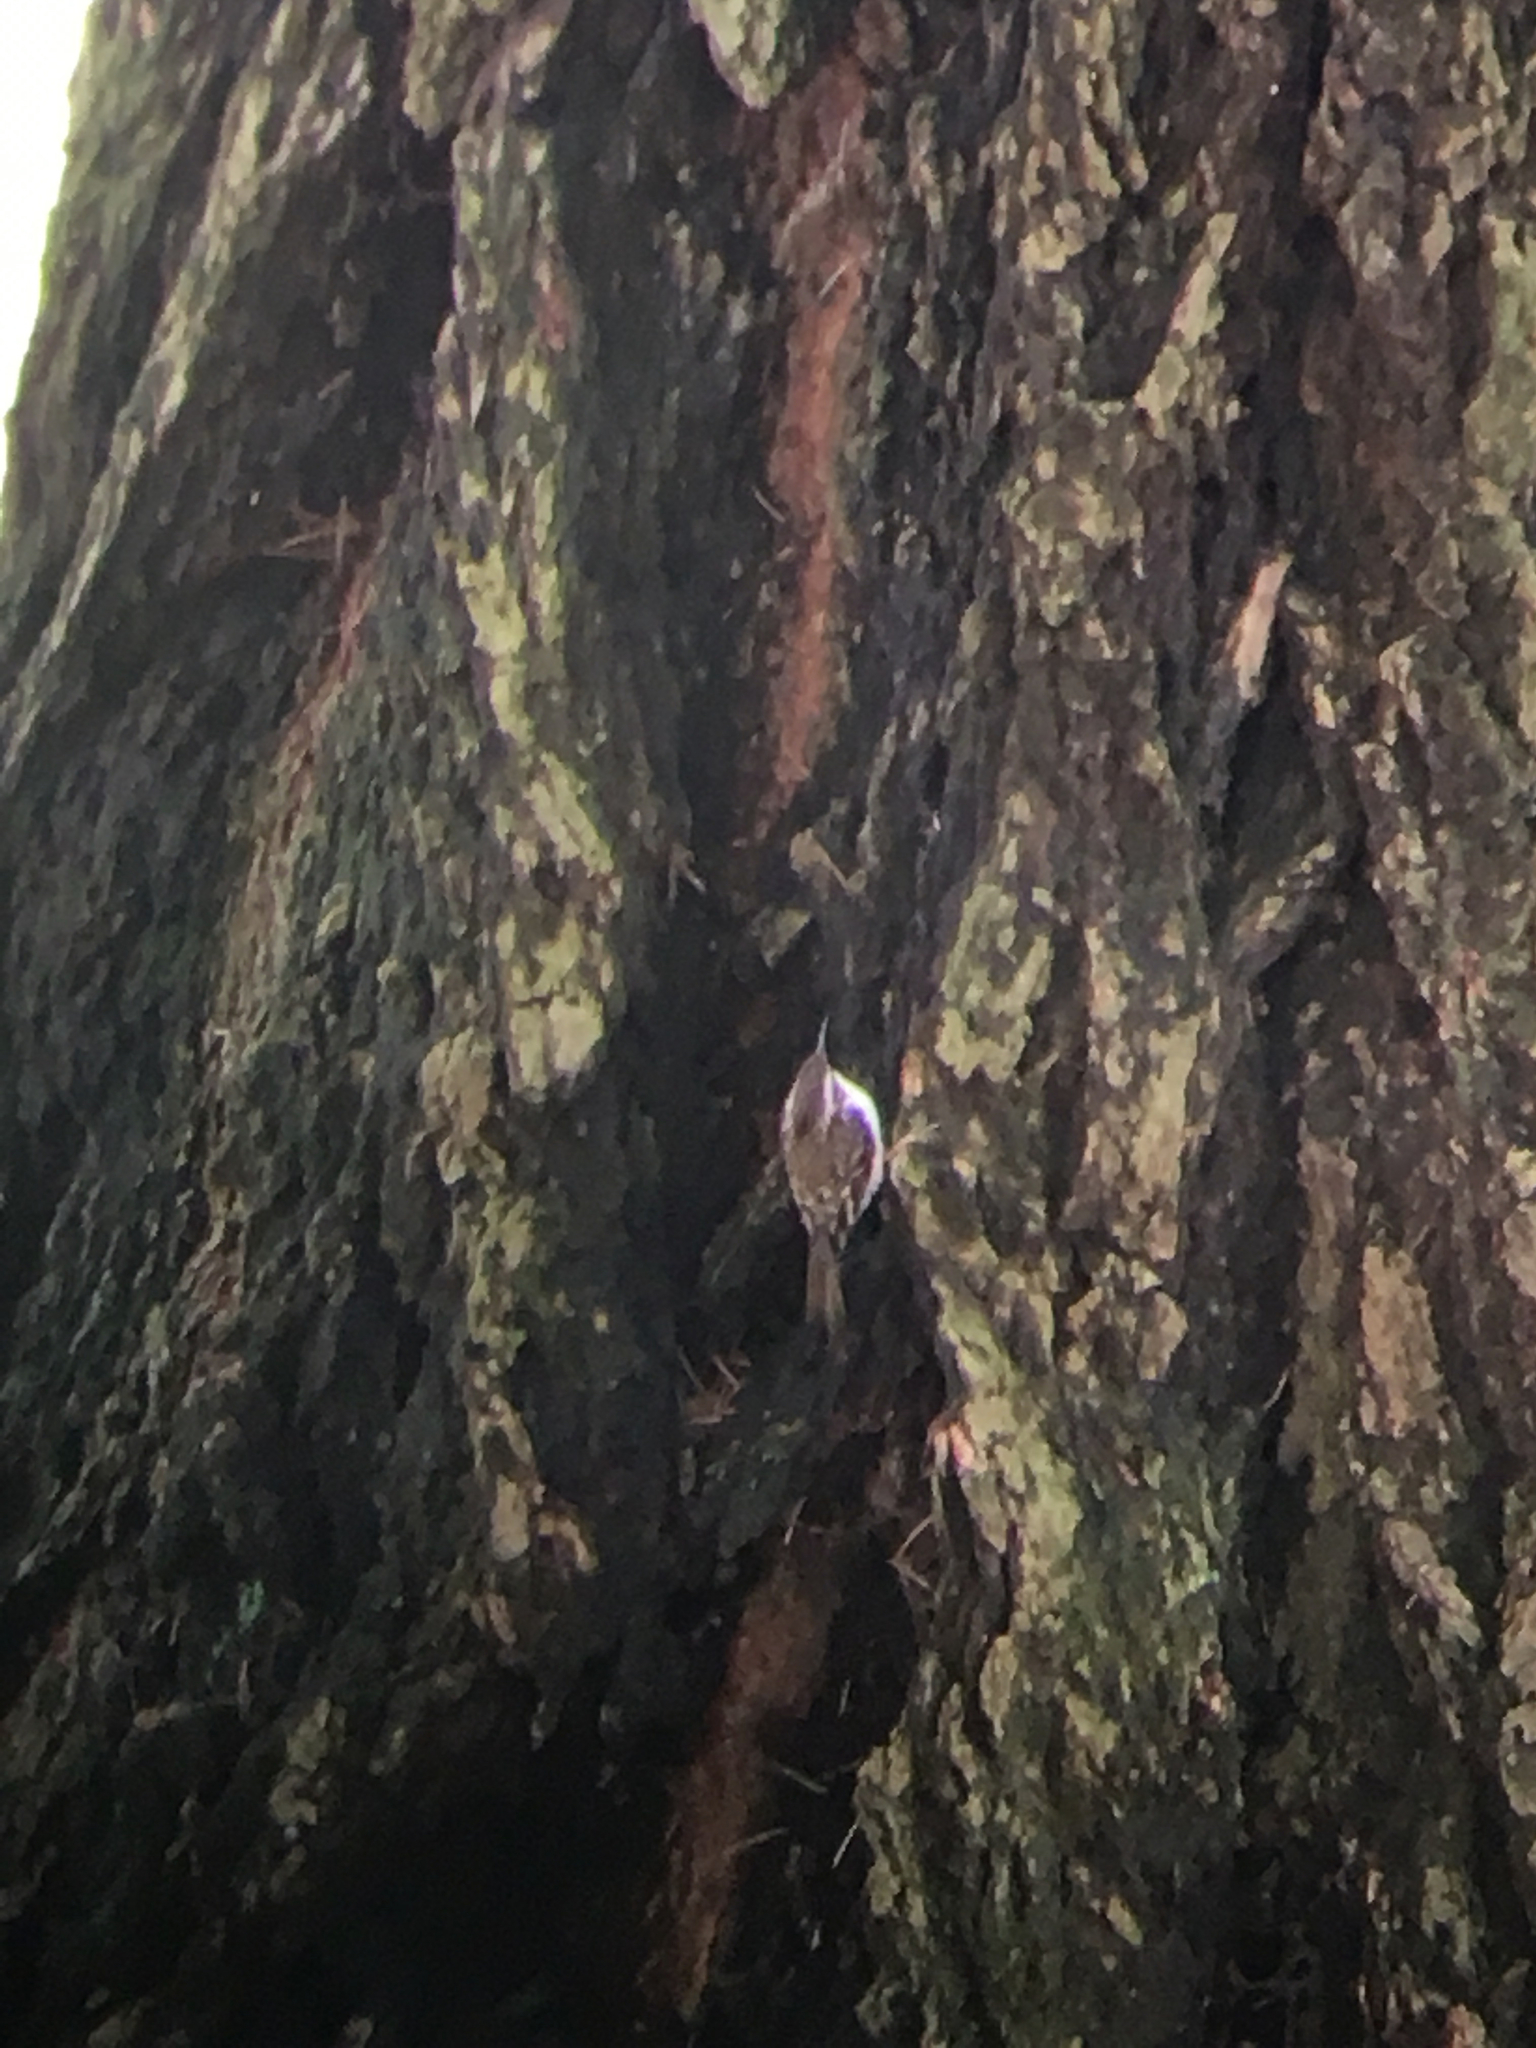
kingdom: Animalia
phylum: Chordata
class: Aves
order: Passeriformes
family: Certhiidae
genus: Certhia
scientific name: Certhia americana
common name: Brown creeper
